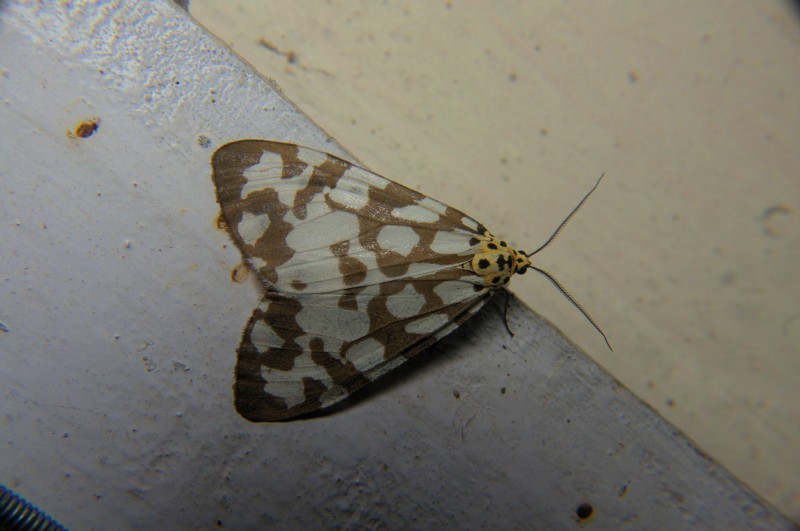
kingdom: Animalia
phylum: Arthropoda
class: Insecta
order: Lepidoptera
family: Erebidae
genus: Utetheisa
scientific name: Utetheisa
